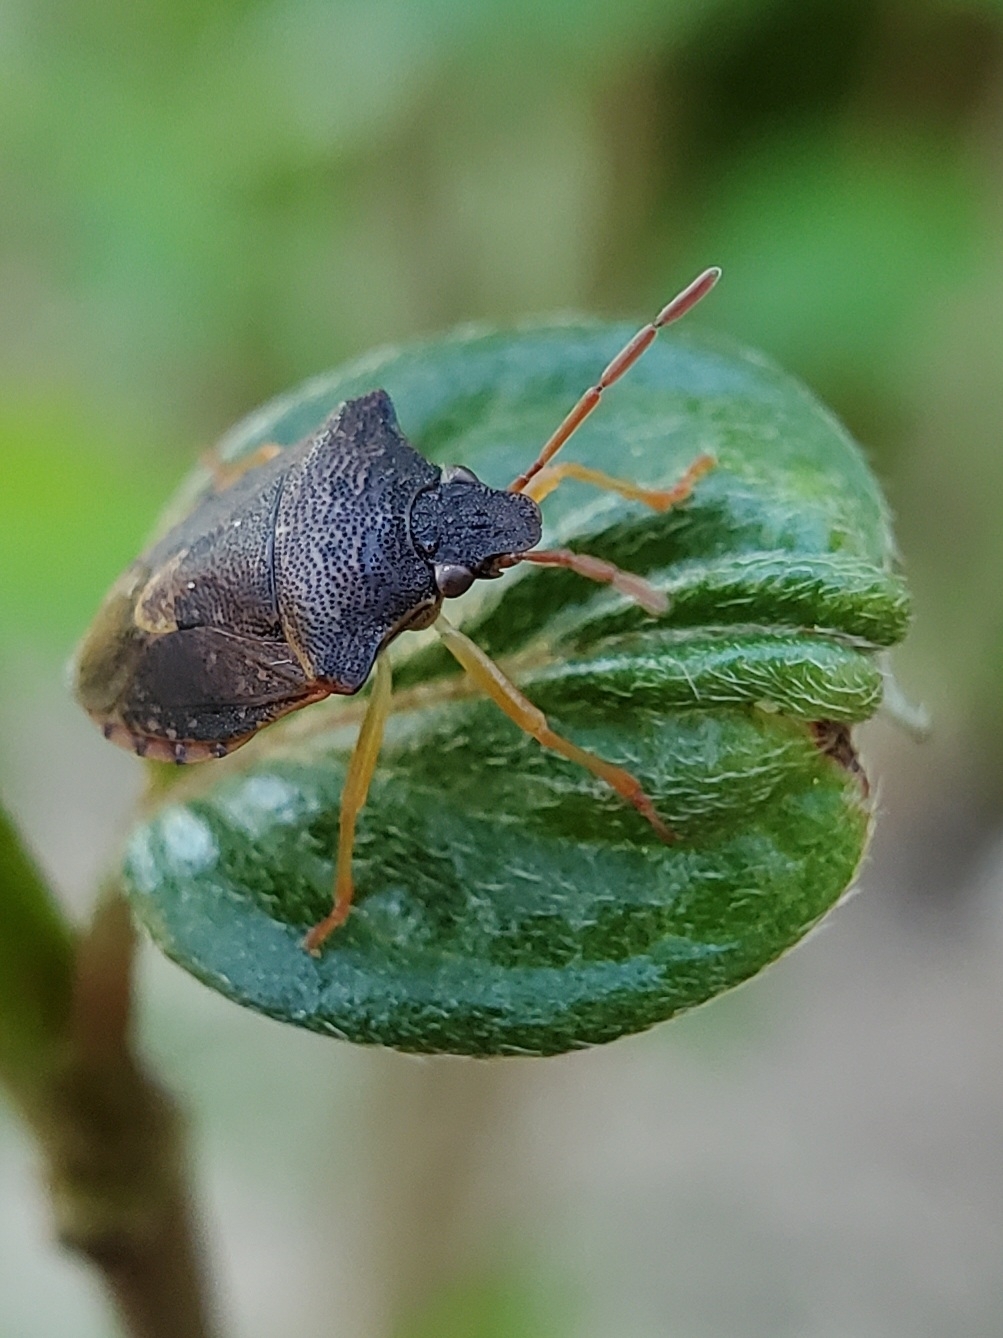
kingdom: Animalia
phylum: Arthropoda
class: Insecta
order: Hemiptera
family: Pentatomidae
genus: Dendrocoris
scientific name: Dendrocoris humeralis
